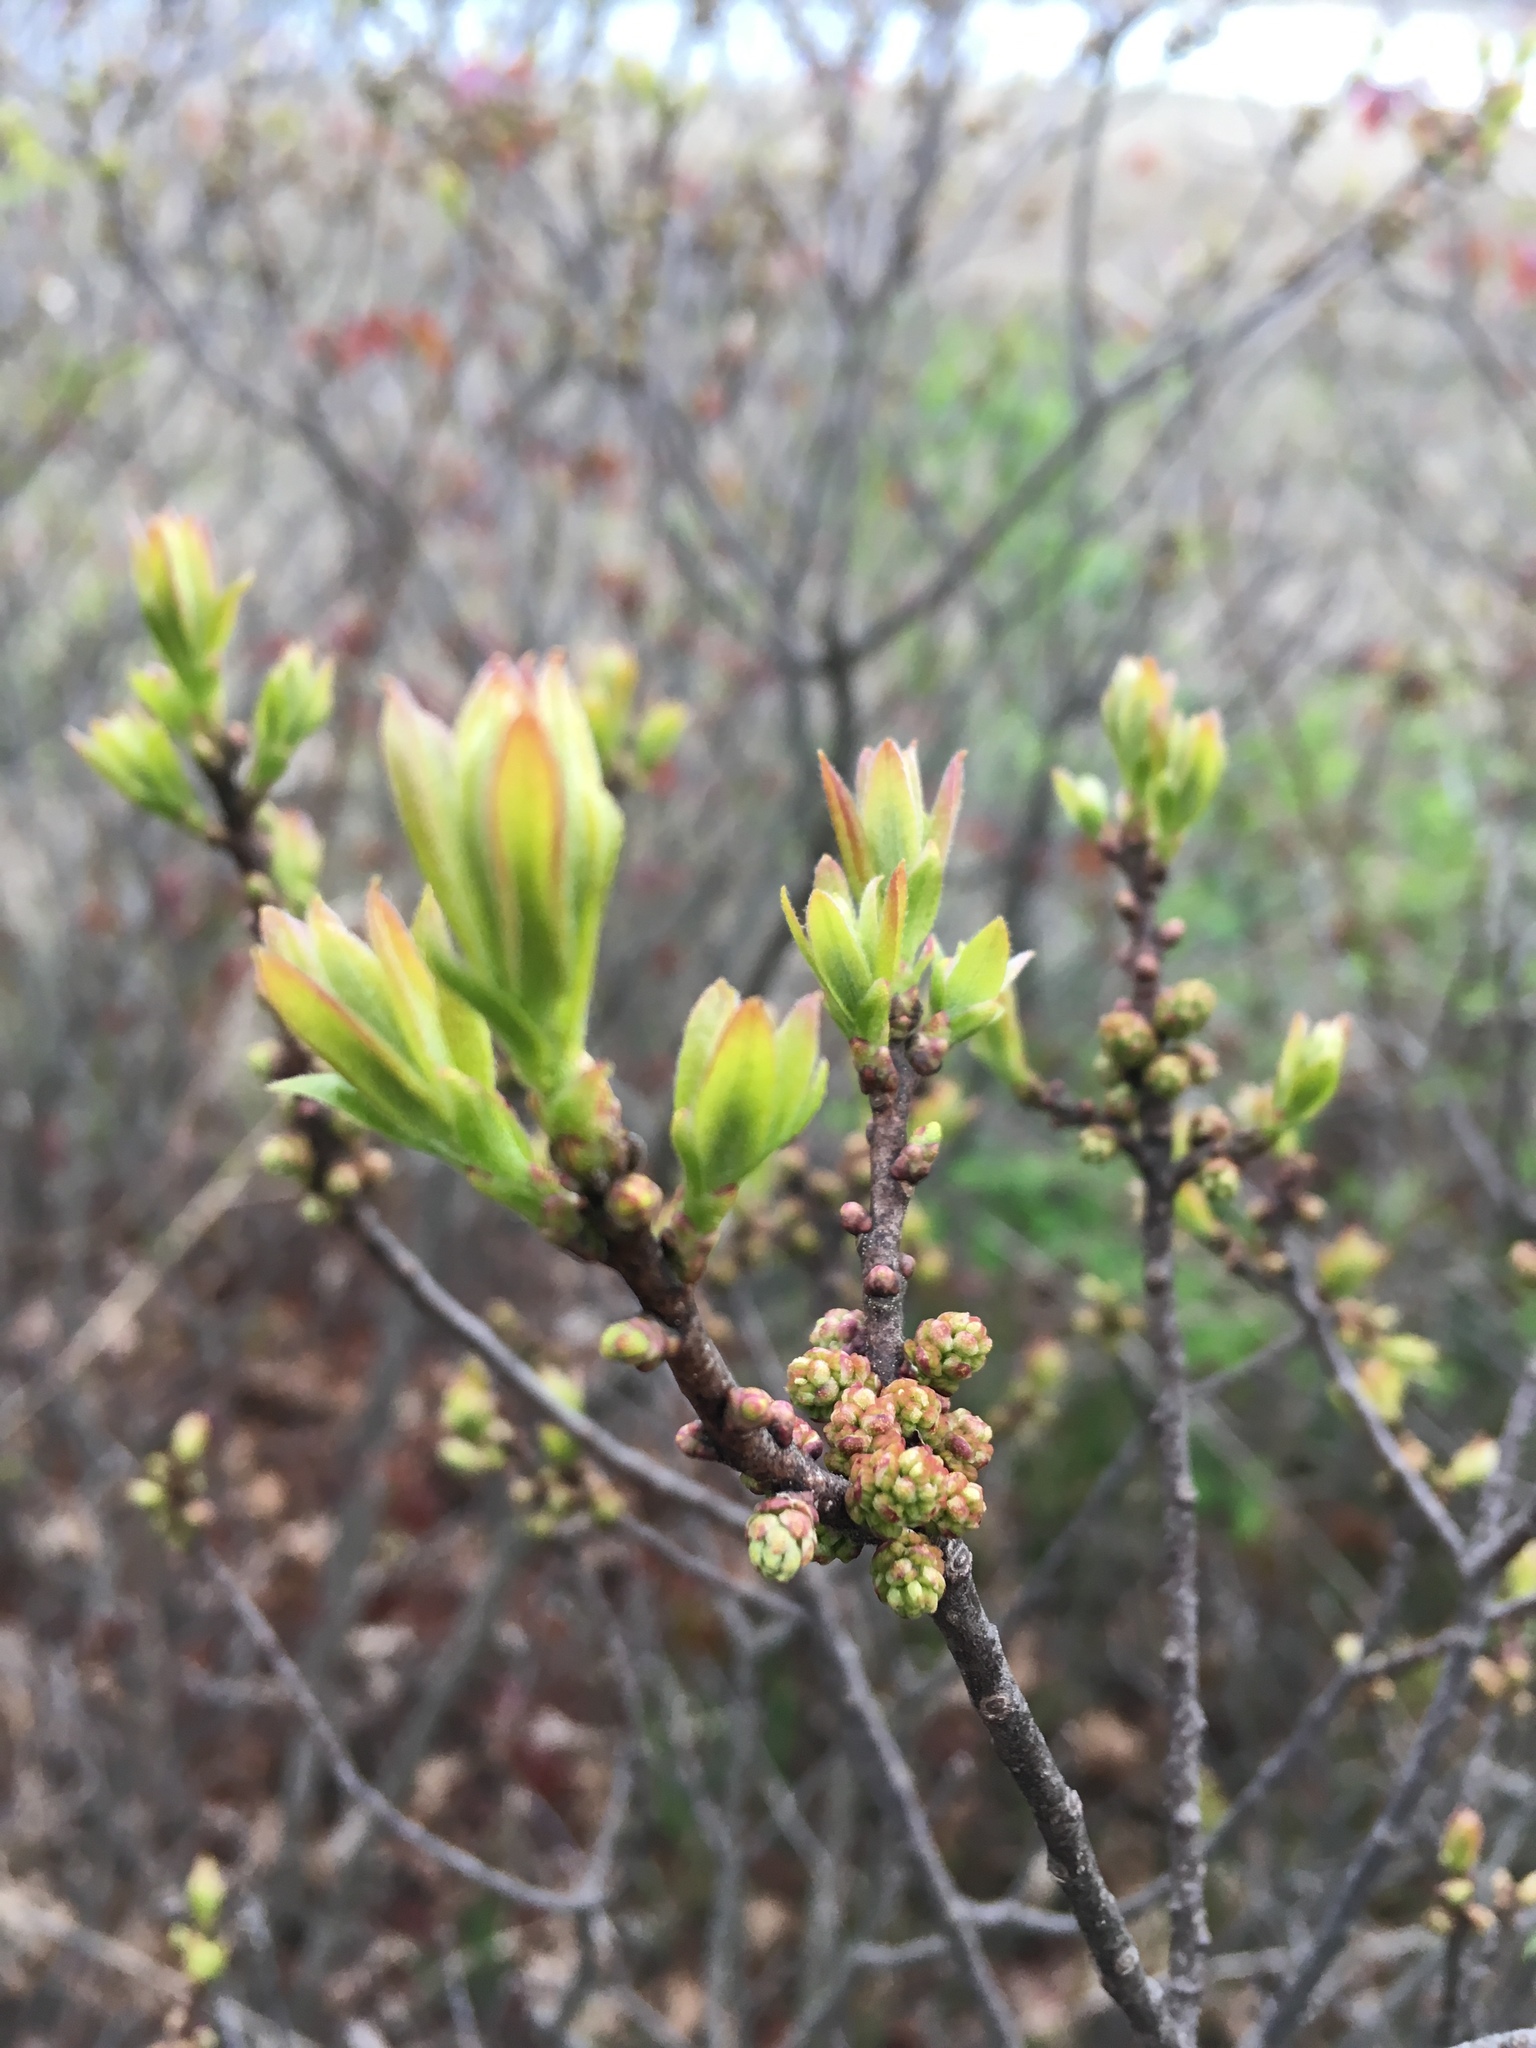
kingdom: Plantae
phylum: Tracheophyta
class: Magnoliopsida
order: Fagales
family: Myricaceae
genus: Morella
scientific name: Morella pensylvanica
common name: Northern bayberry
